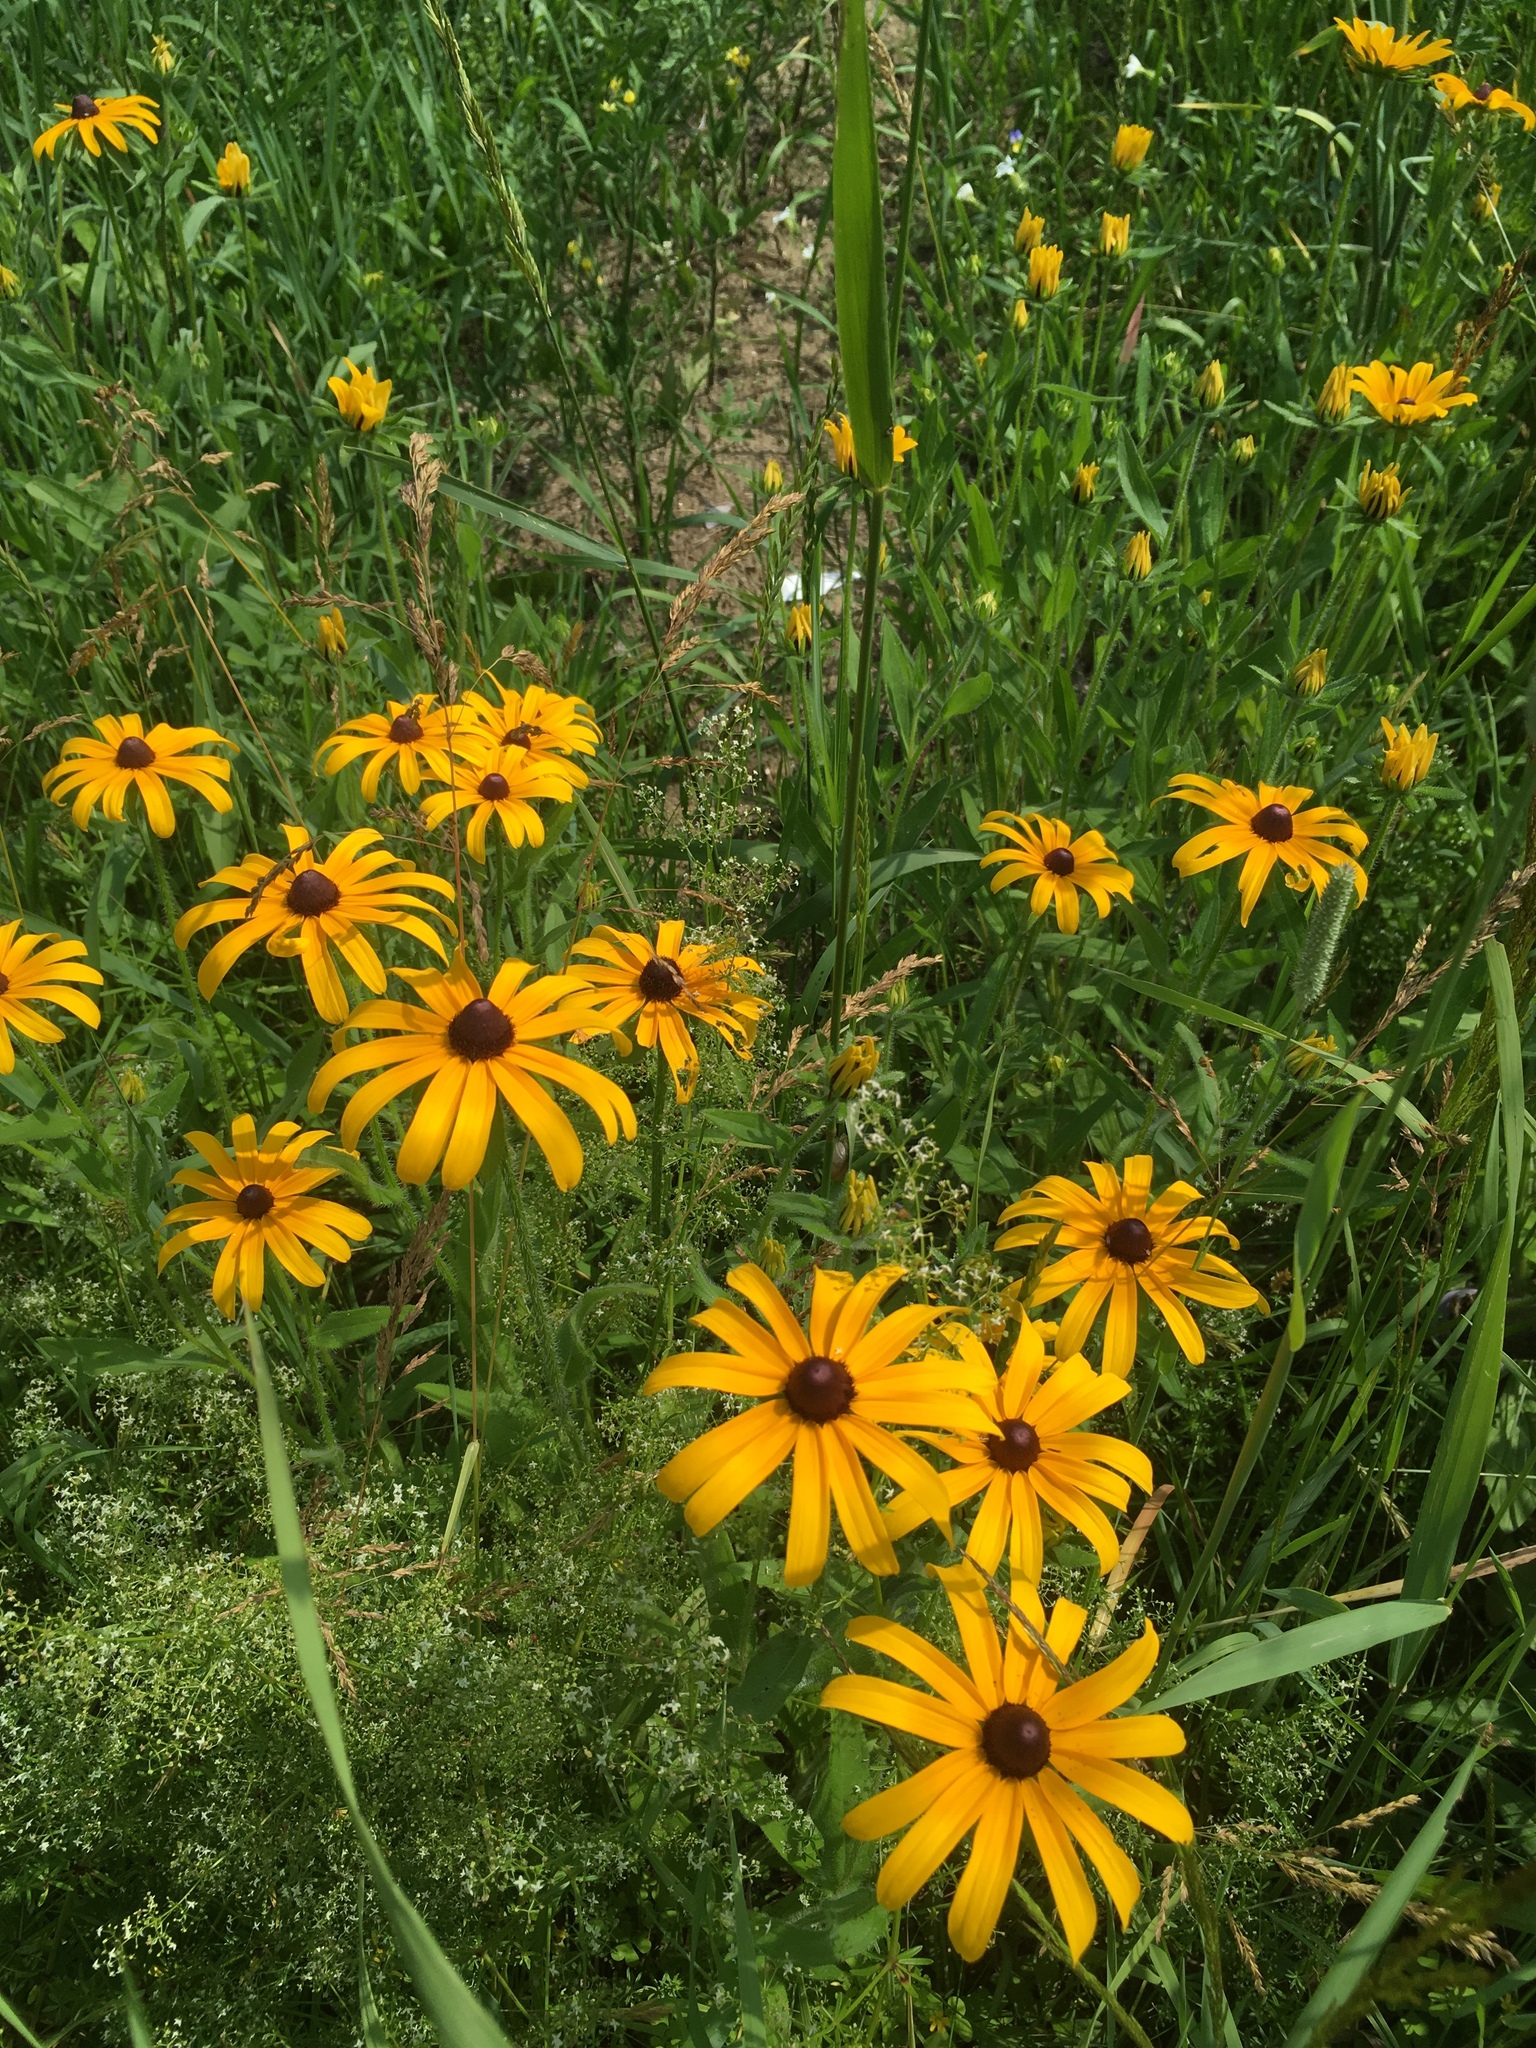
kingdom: Plantae
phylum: Tracheophyta
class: Magnoliopsida
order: Asterales
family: Asteraceae
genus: Rudbeckia
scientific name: Rudbeckia hirta
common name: Black-eyed-susan
